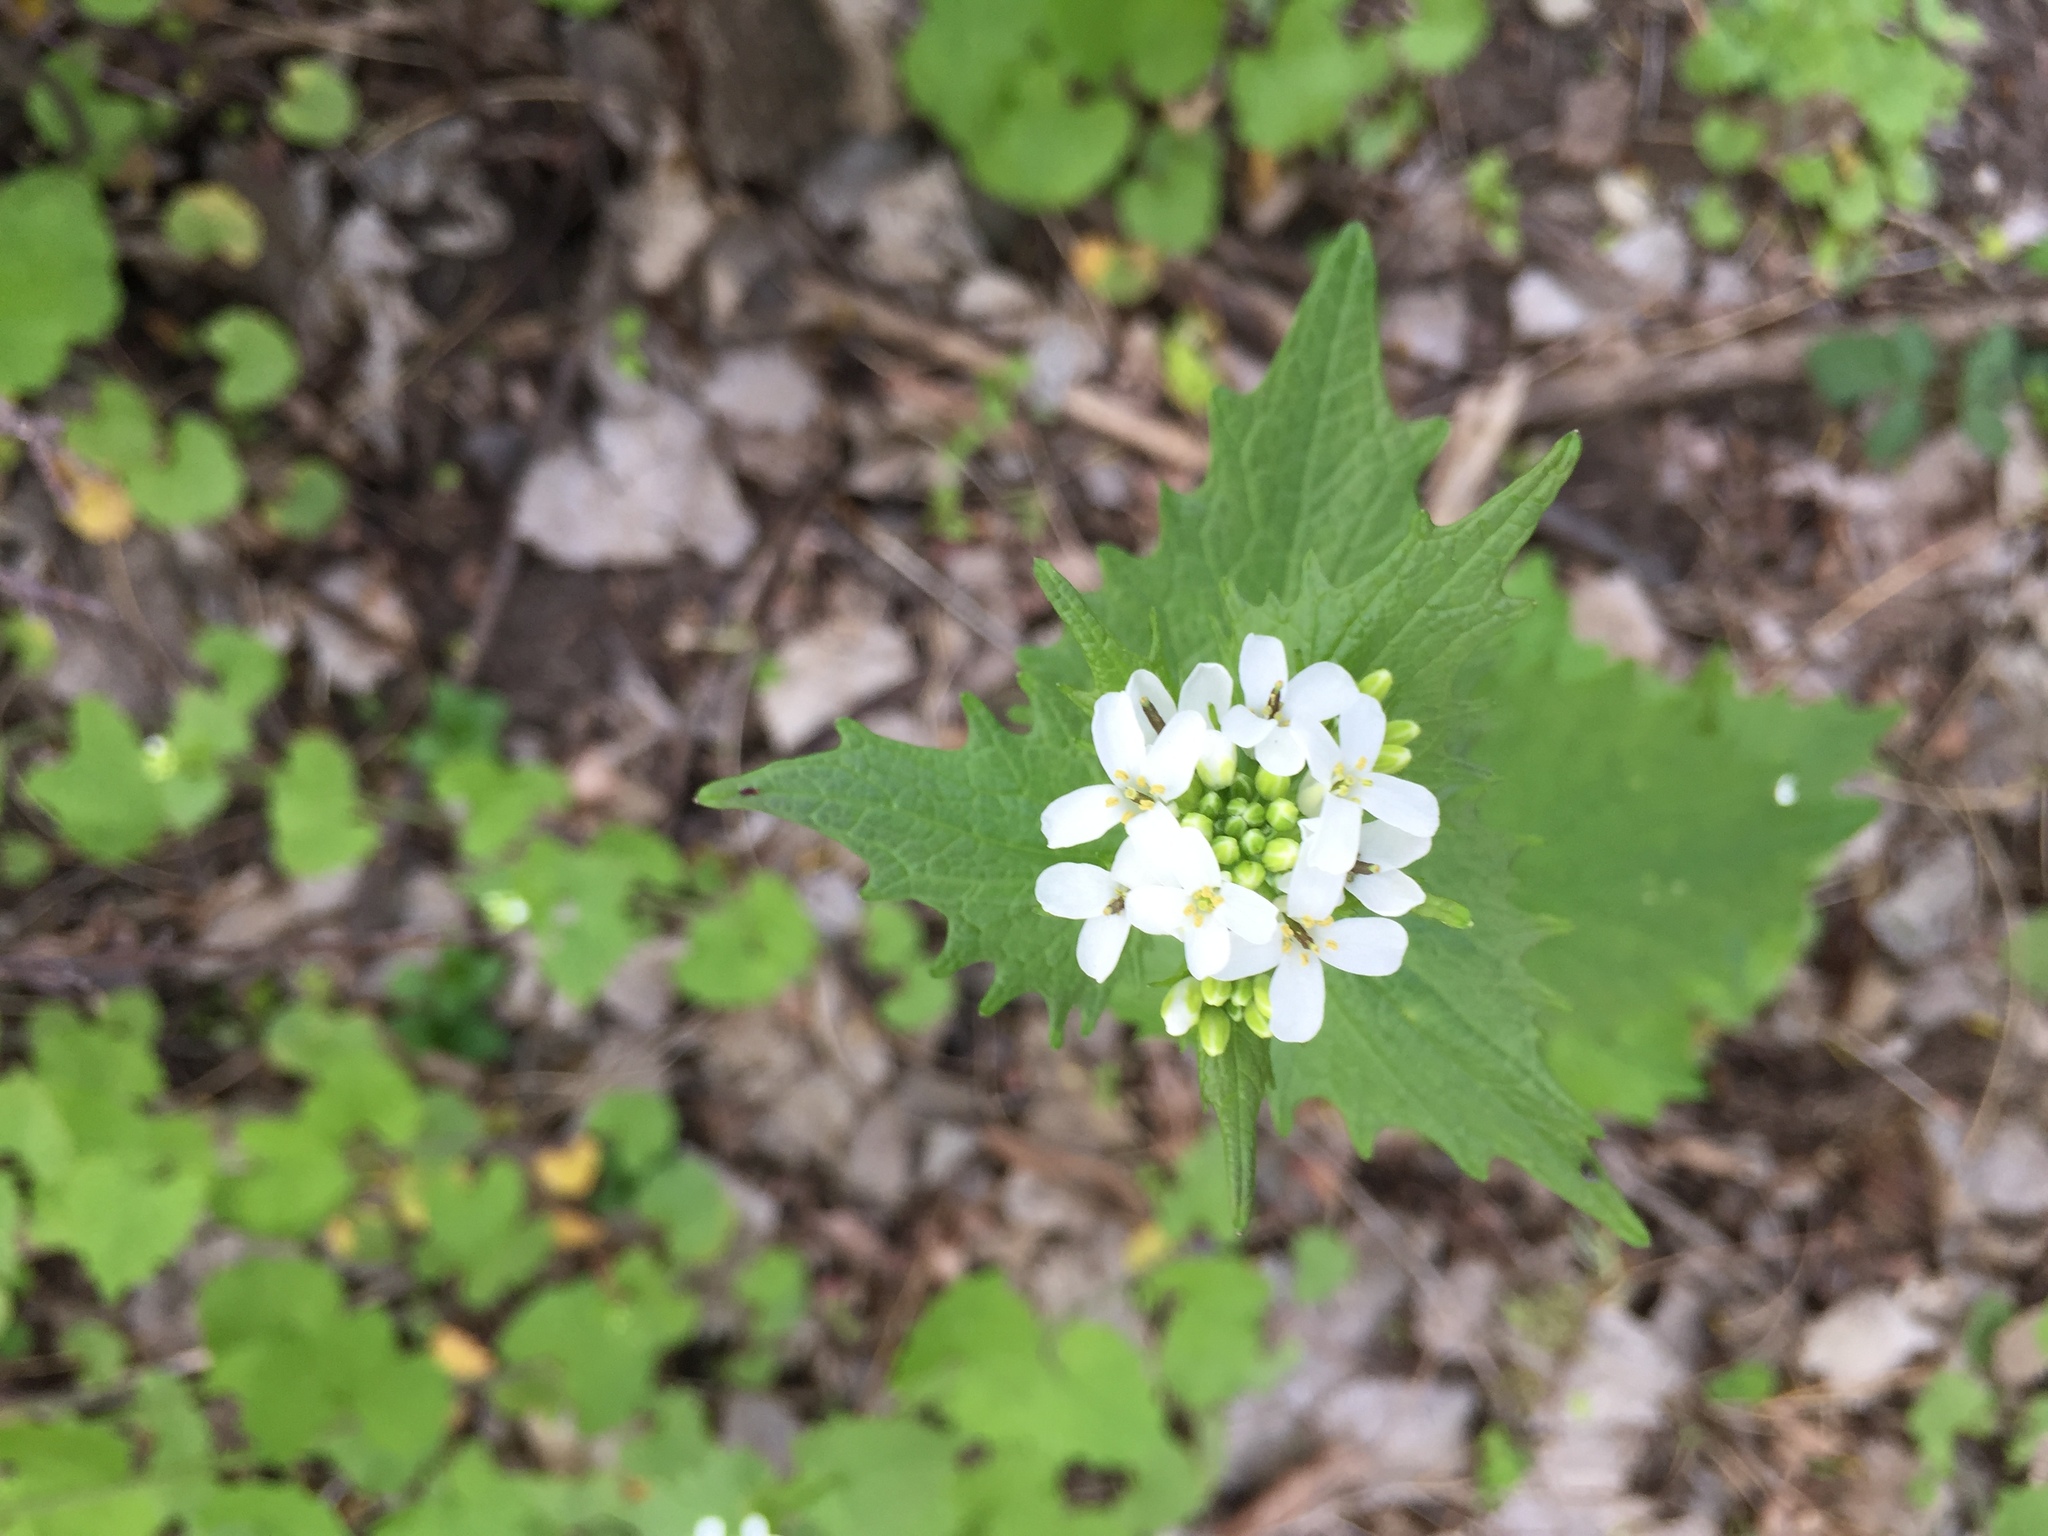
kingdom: Plantae
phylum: Tracheophyta
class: Magnoliopsida
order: Brassicales
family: Brassicaceae
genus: Alliaria
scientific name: Alliaria petiolata
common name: Garlic mustard
